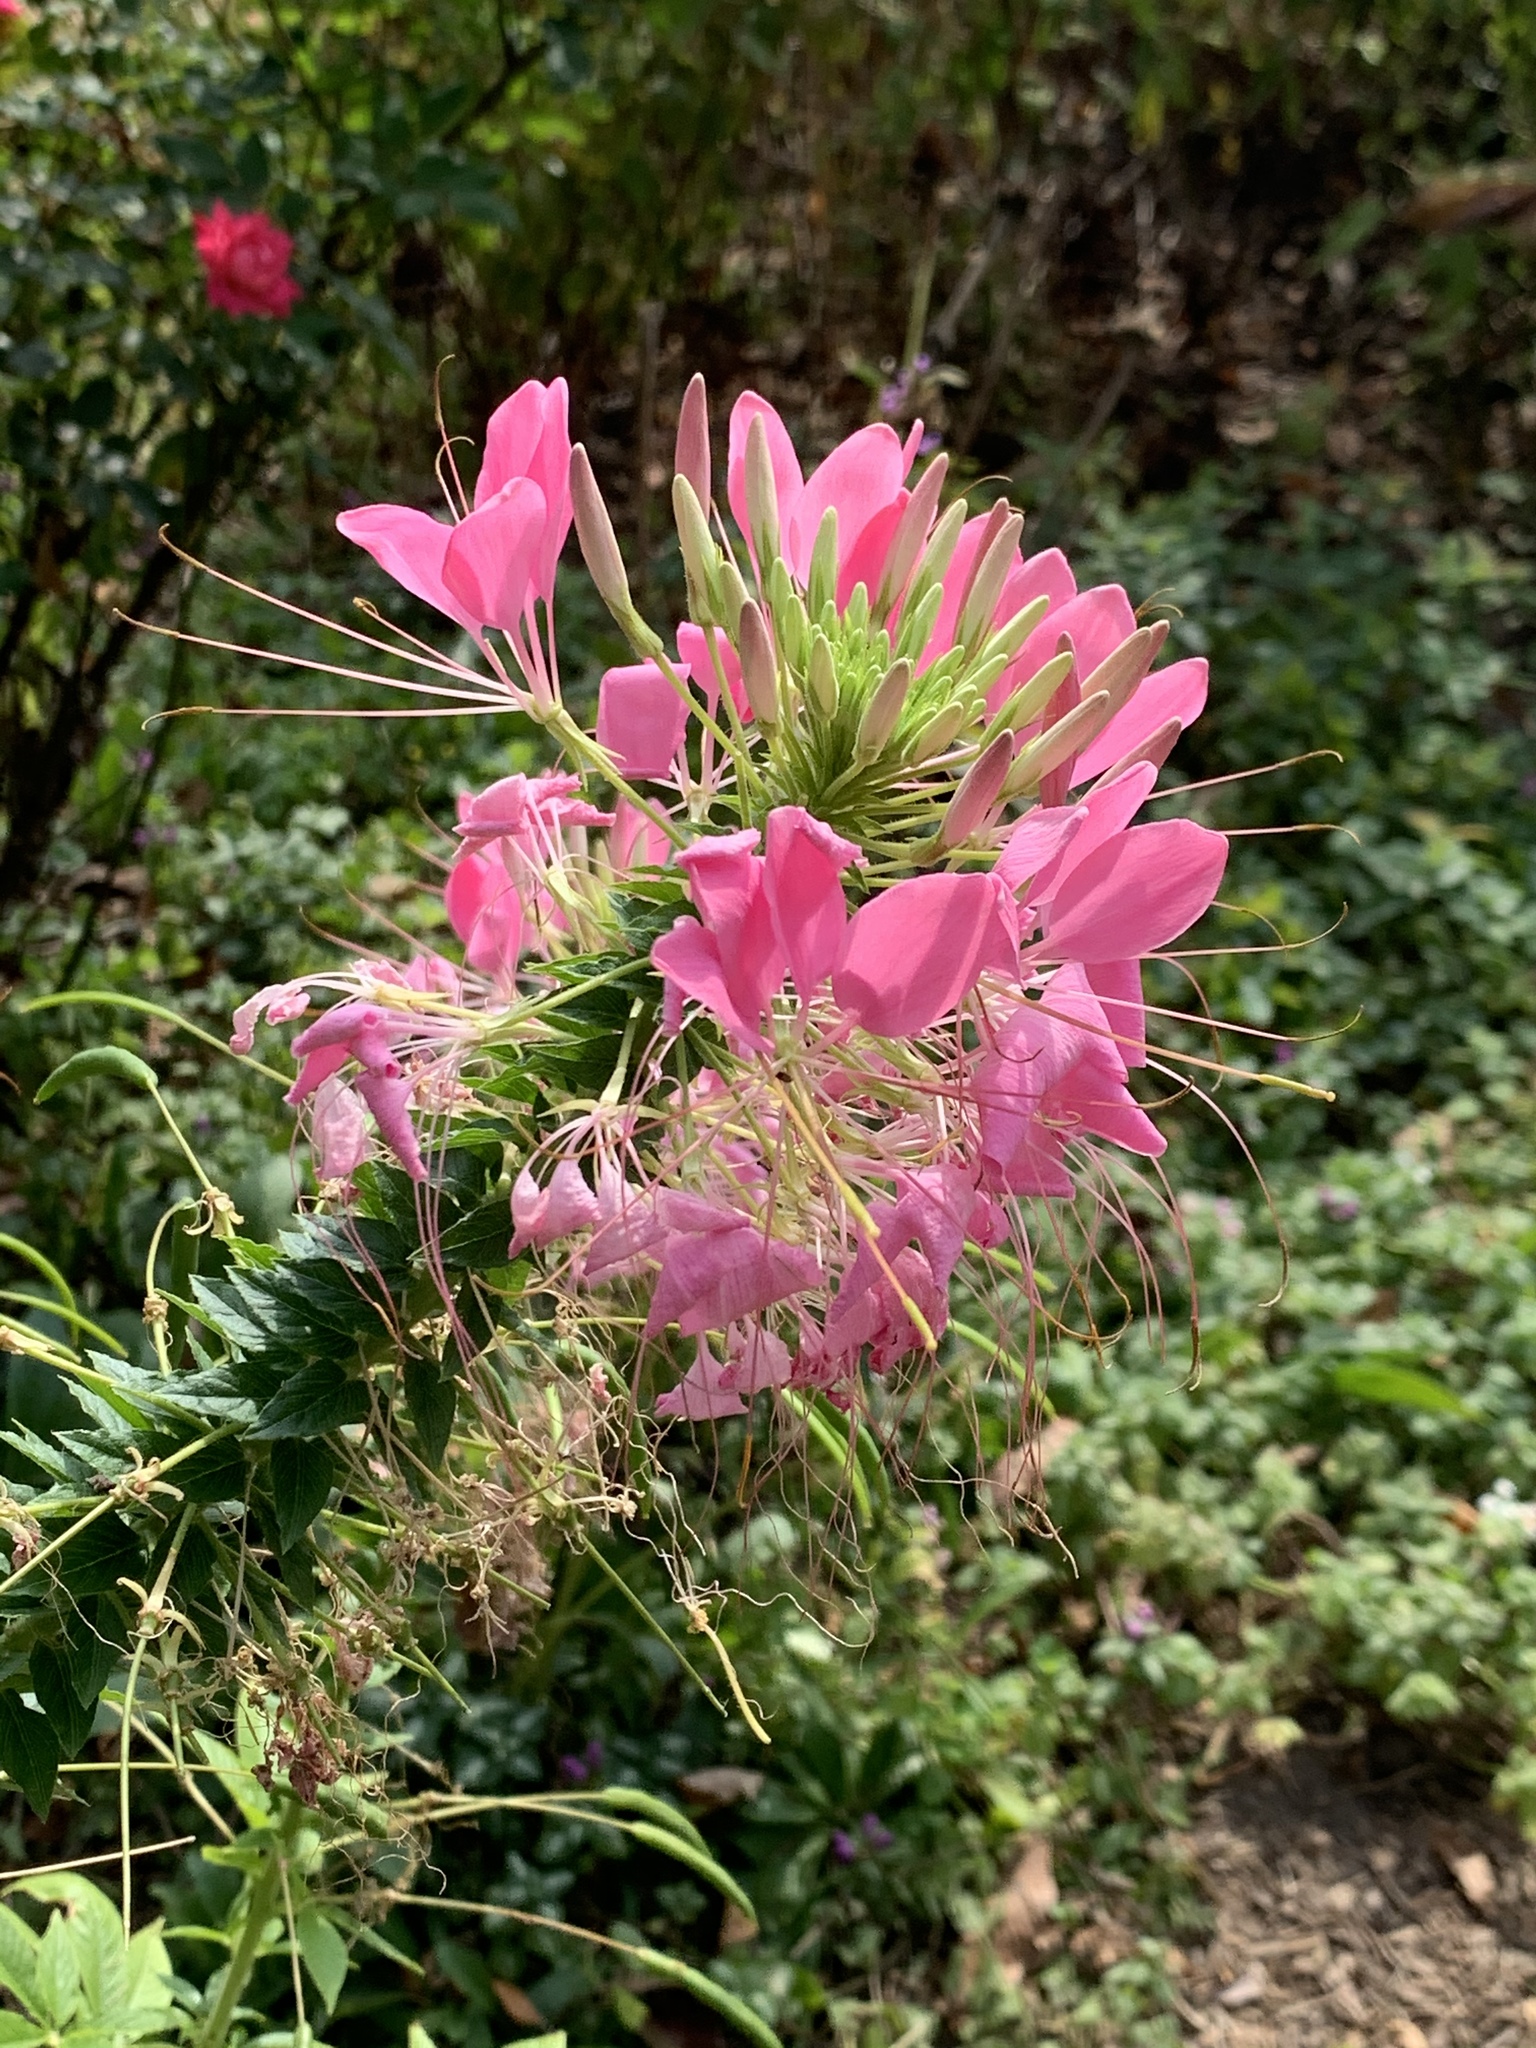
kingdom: Plantae
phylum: Tracheophyta
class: Magnoliopsida
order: Brassicales
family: Cleomaceae
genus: Tarenaya
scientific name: Tarenaya houtteana
